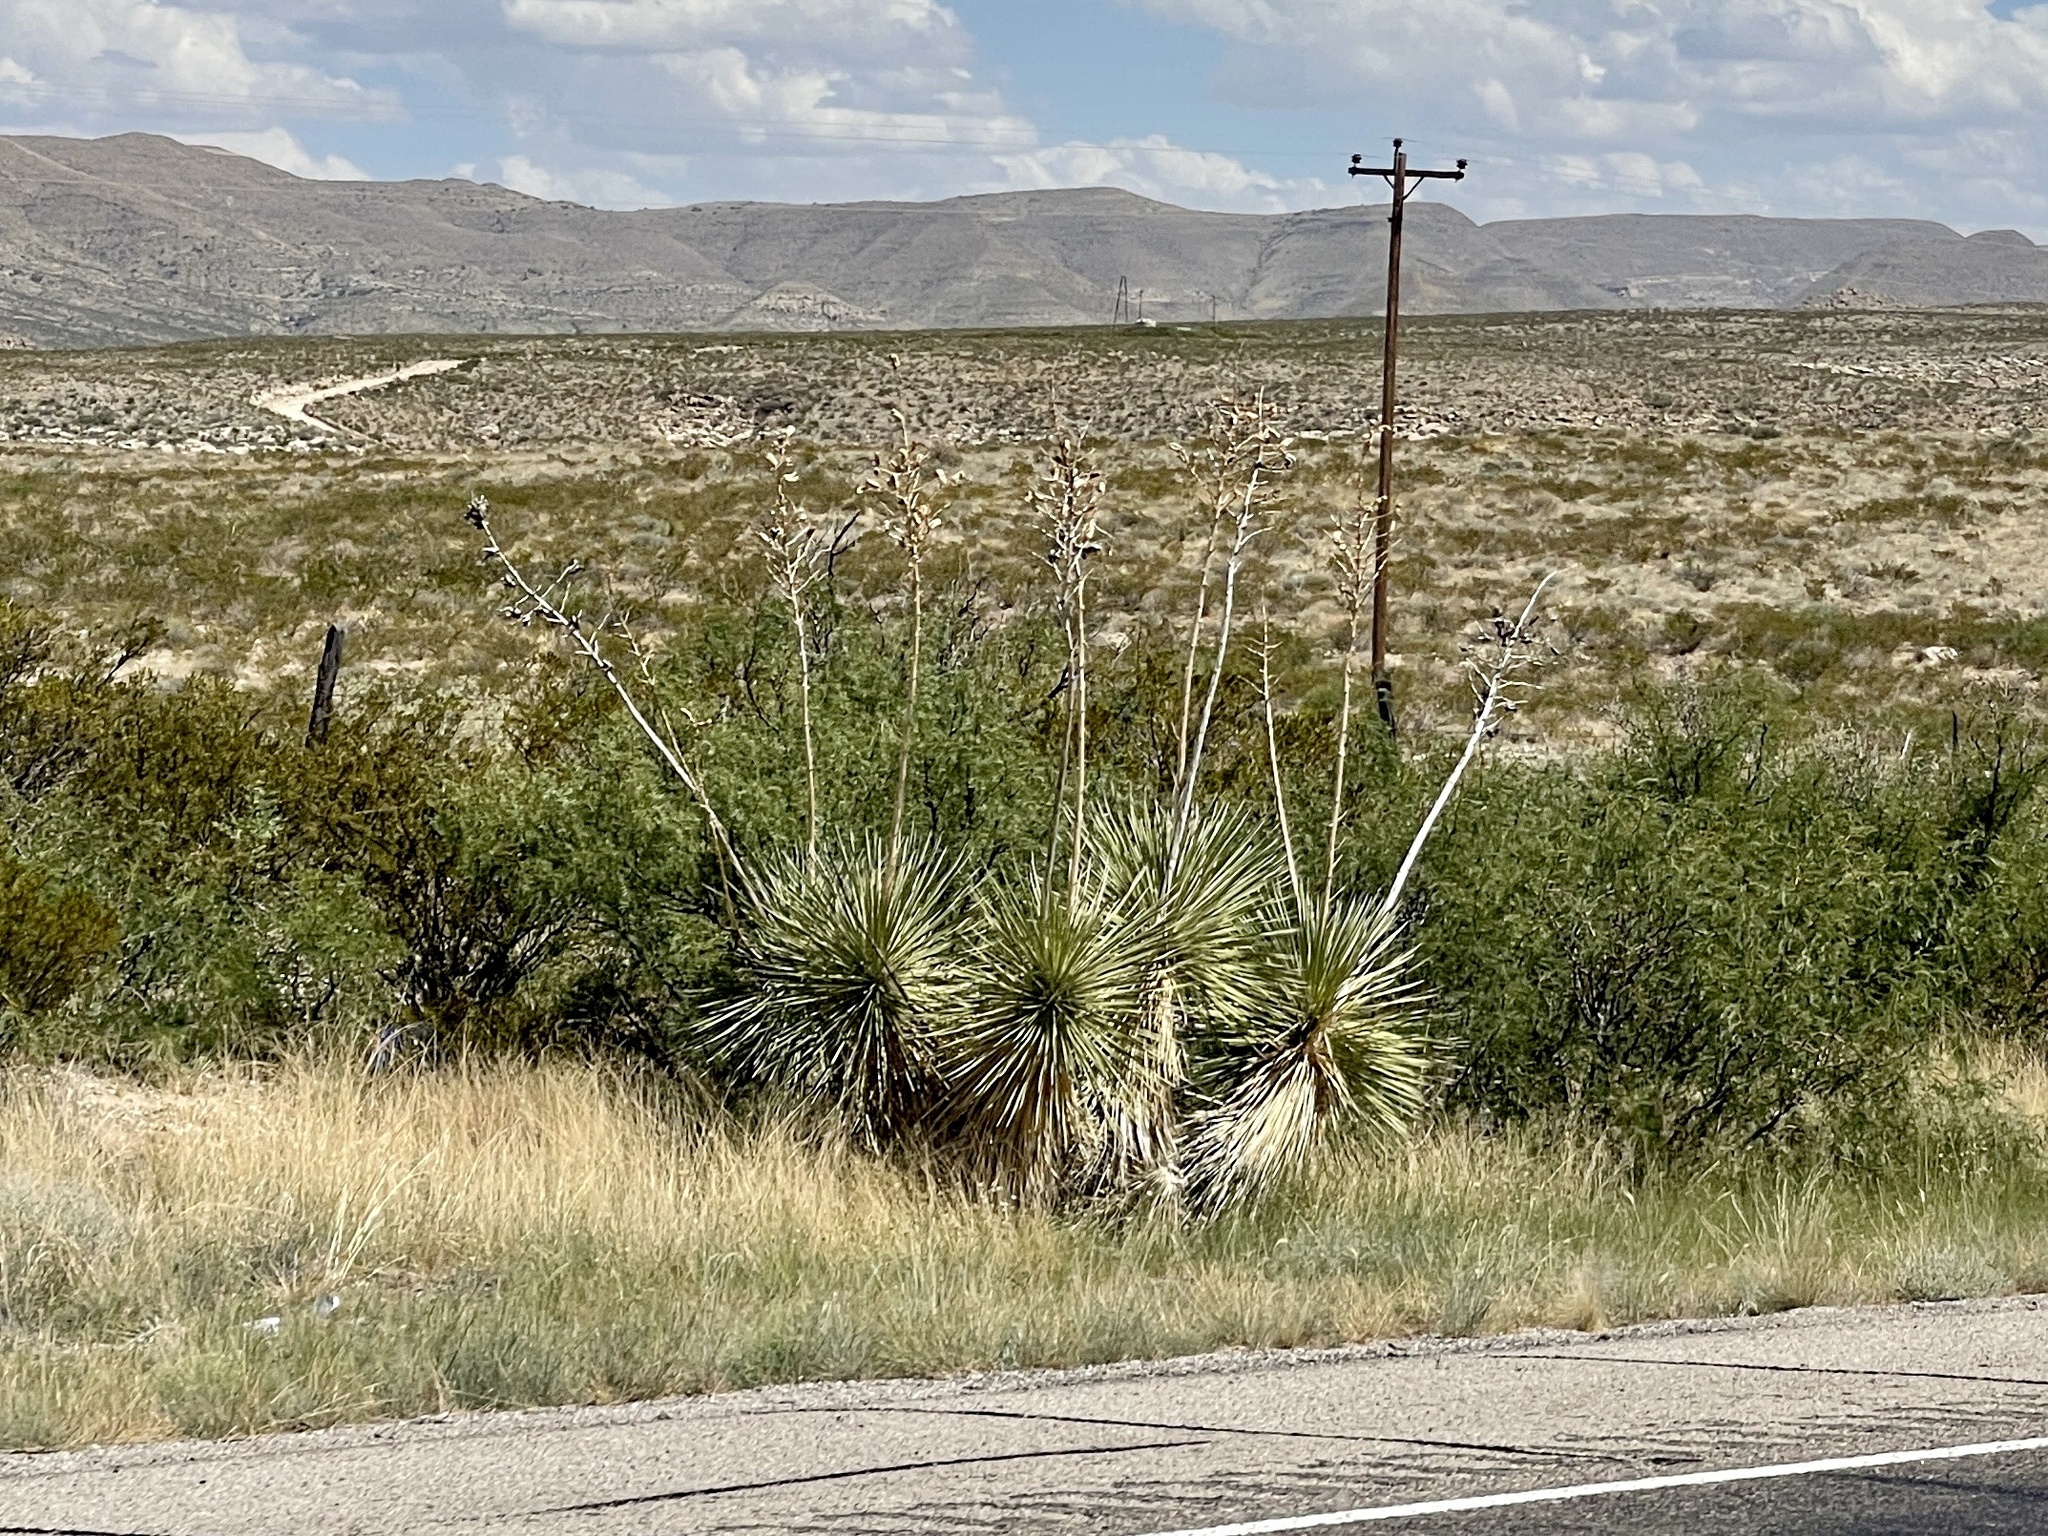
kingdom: Plantae
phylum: Tracheophyta
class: Liliopsida
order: Asparagales
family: Asparagaceae
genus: Yucca
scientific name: Yucca elata
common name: Palmella
